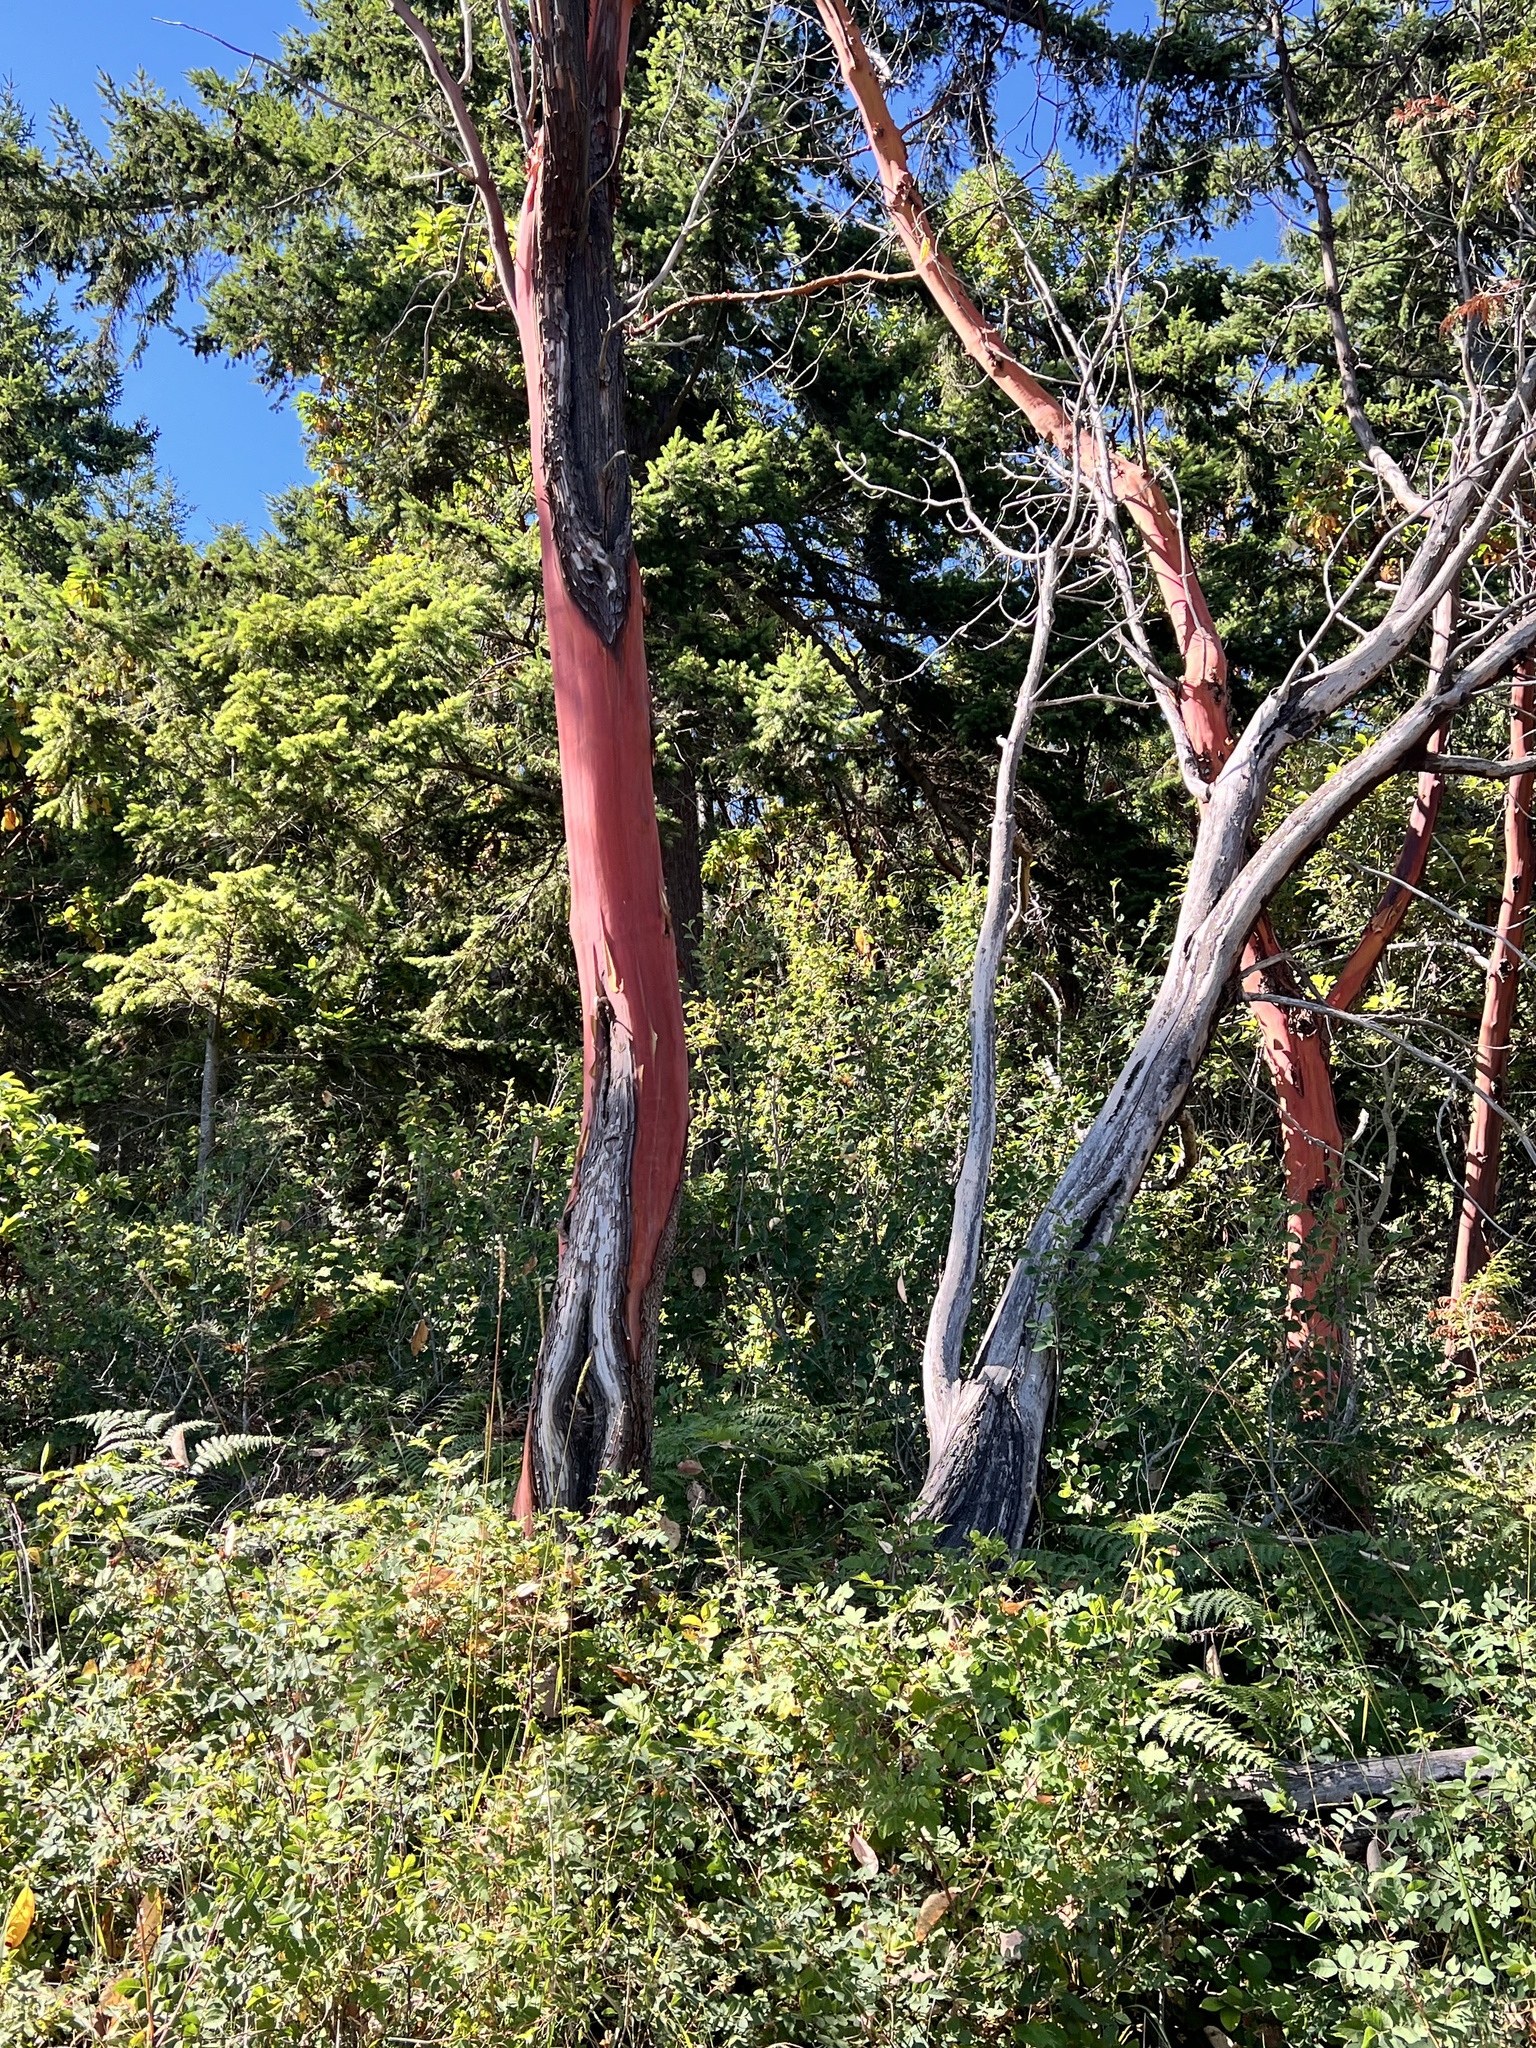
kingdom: Plantae
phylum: Tracheophyta
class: Magnoliopsida
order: Ericales
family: Ericaceae
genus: Arbutus
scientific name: Arbutus menziesii
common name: Pacific madrone
